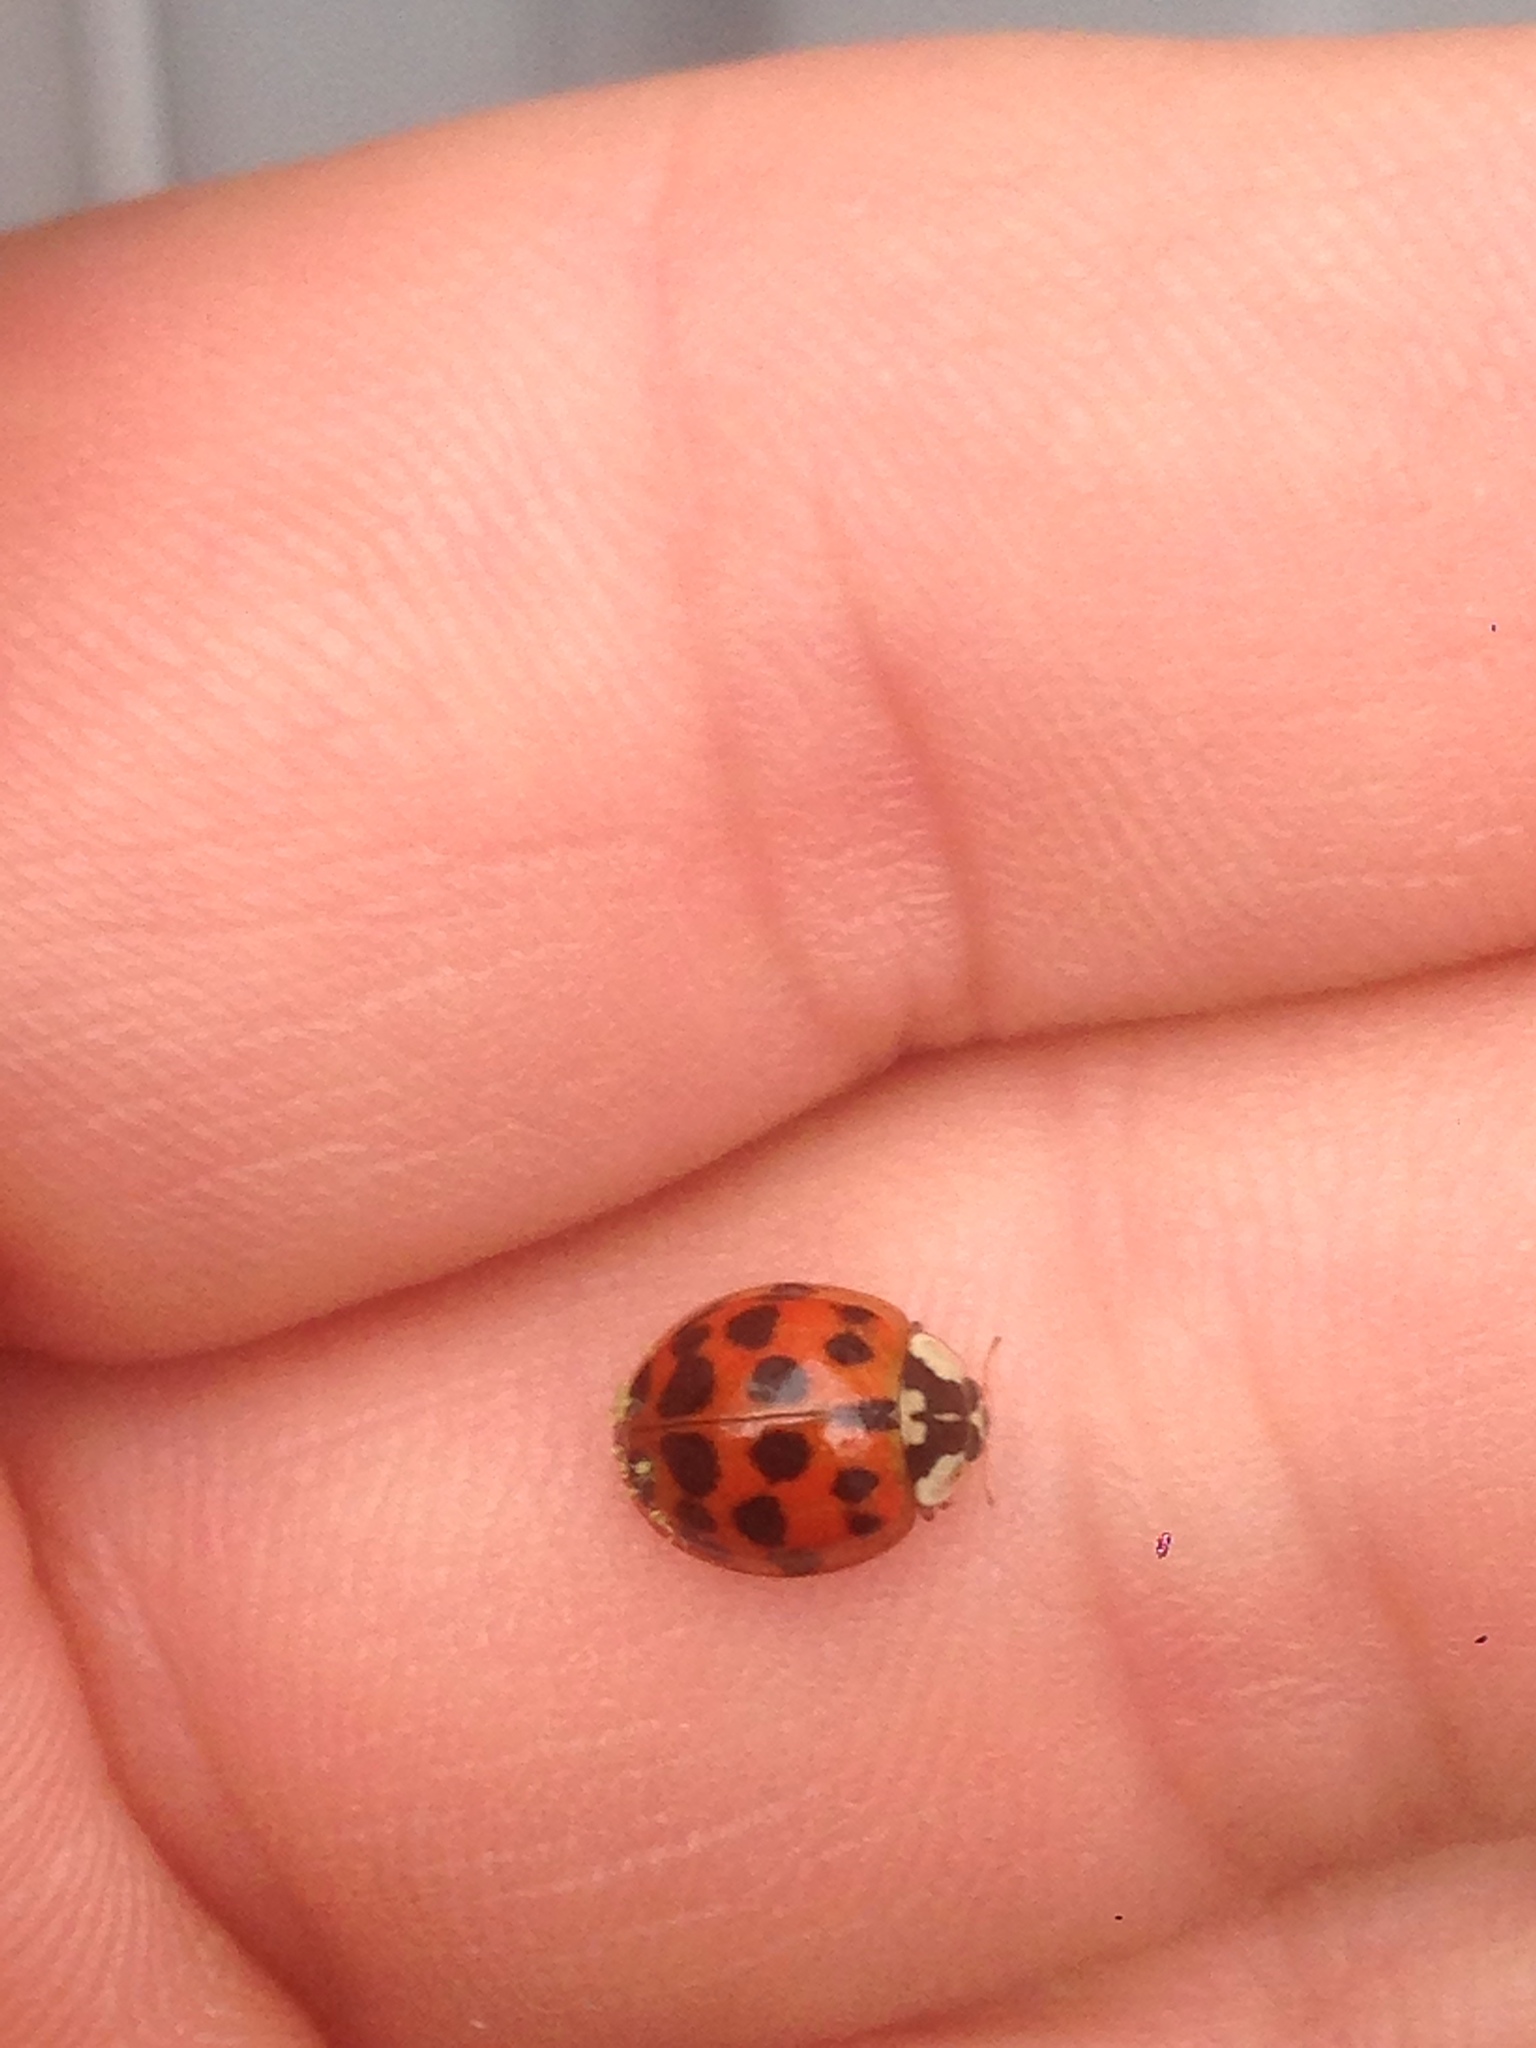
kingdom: Animalia
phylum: Arthropoda
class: Insecta
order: Coleoptera
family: Coccinellidae
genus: Harmonia
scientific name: Harmonia axyridis
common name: Harlequin ladybird
